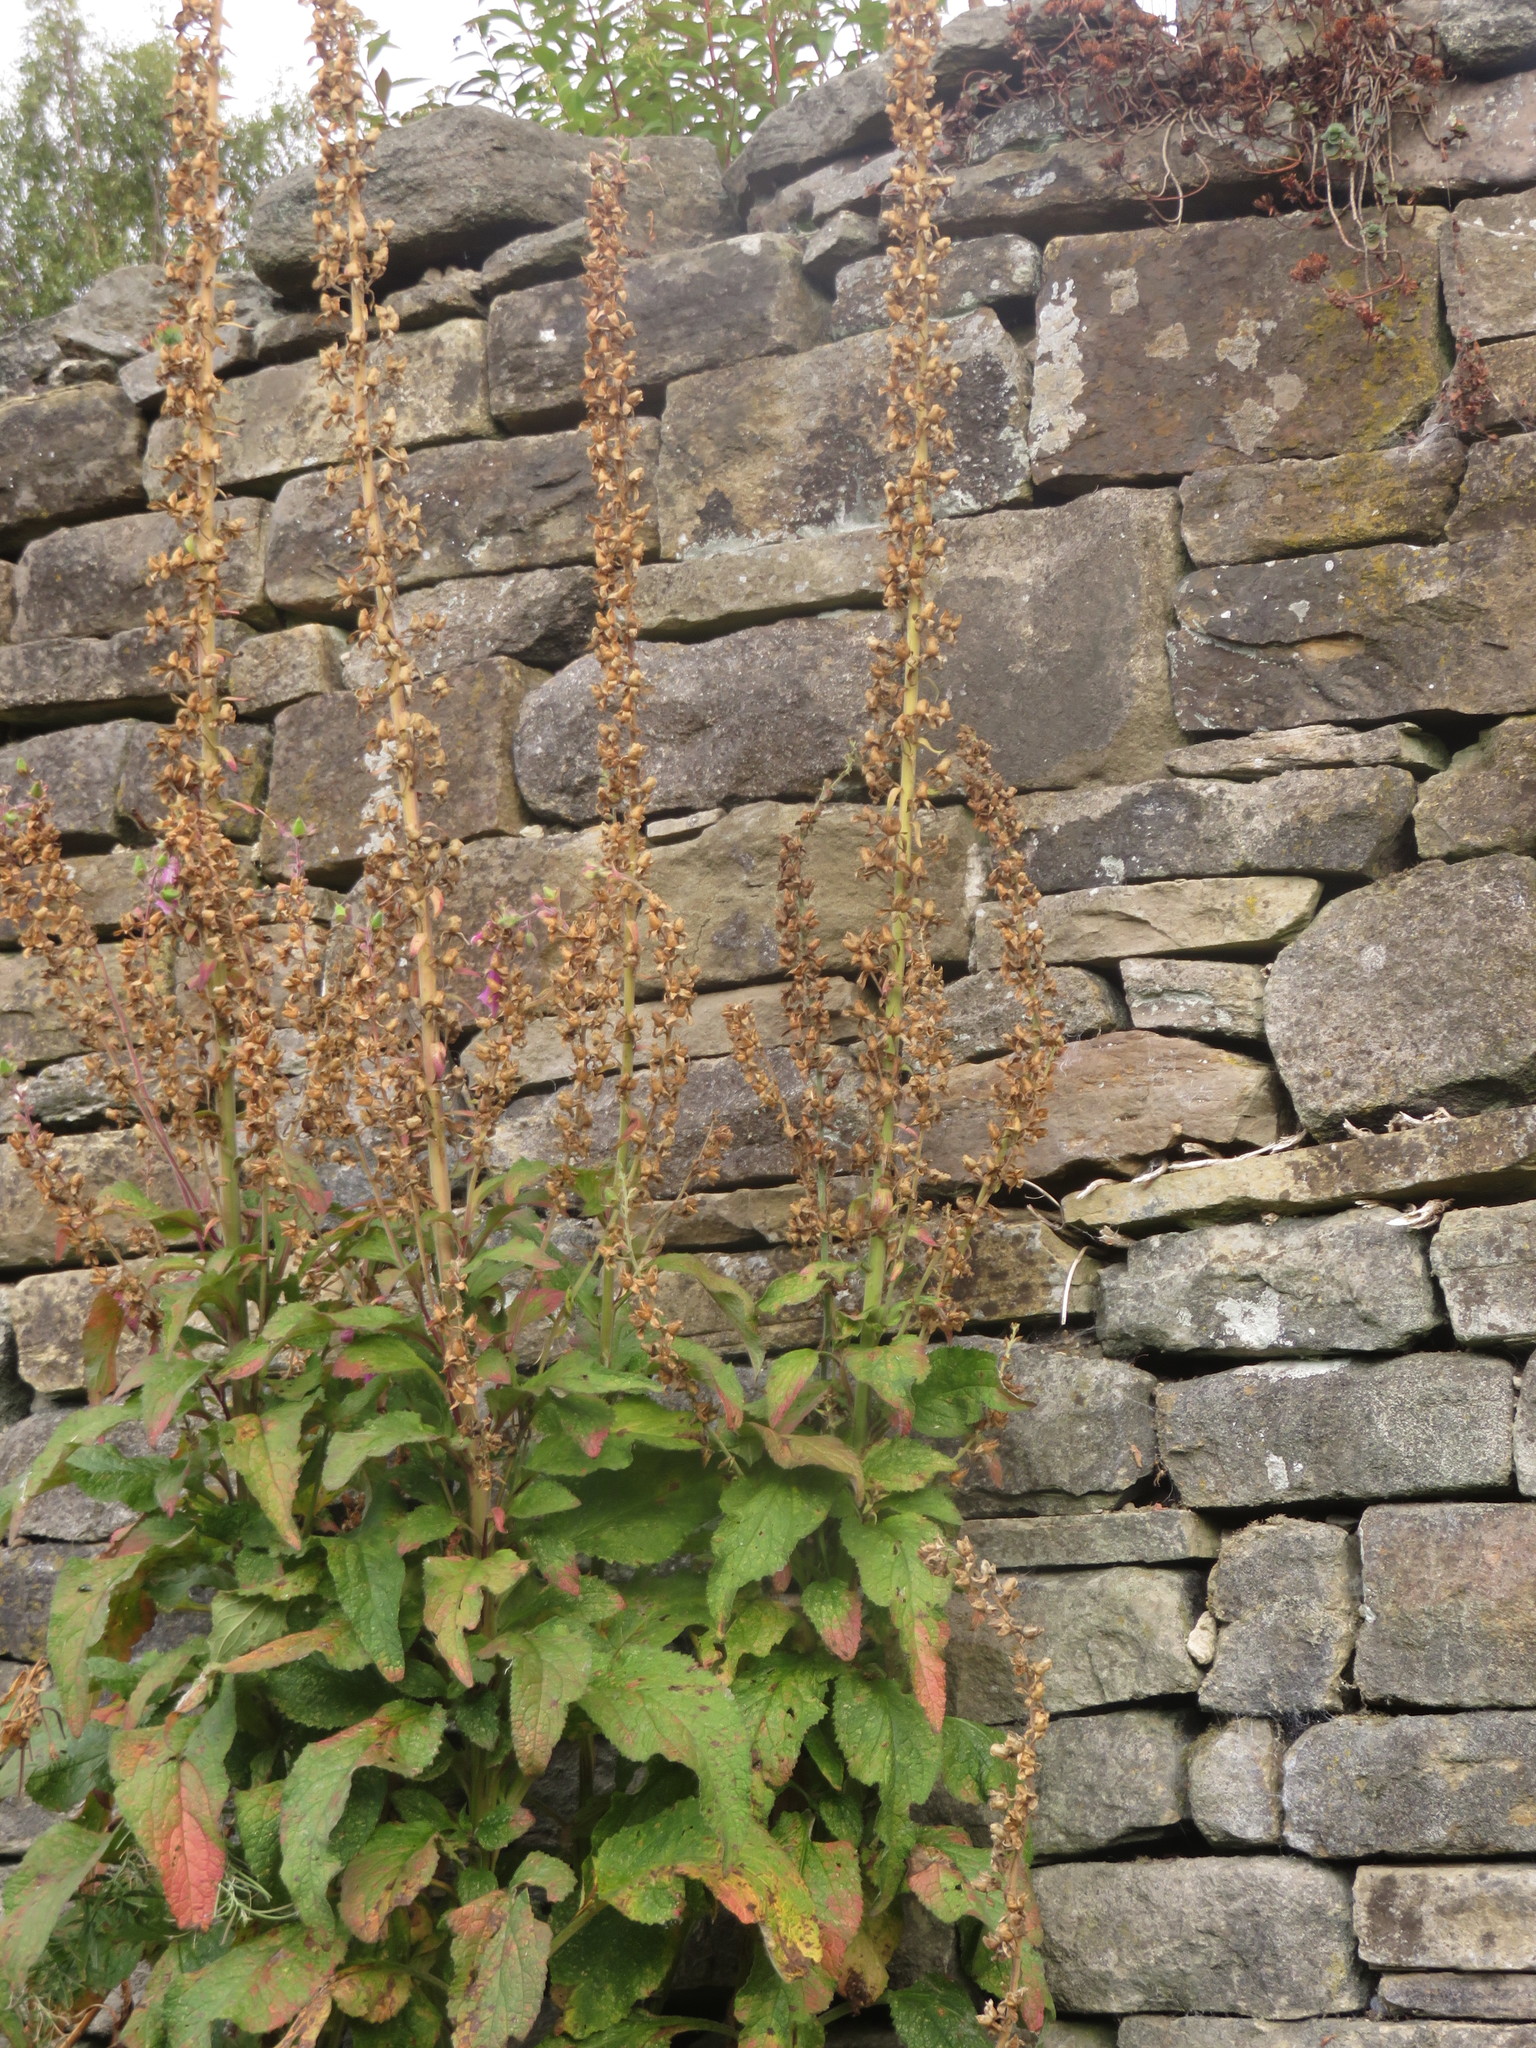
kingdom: Plantae
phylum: Tracheophyta
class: Magnoliopsida
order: Lamiales
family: Plantaginaceae
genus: Digitalis
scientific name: Digitalis purpurea
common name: Foxglove
